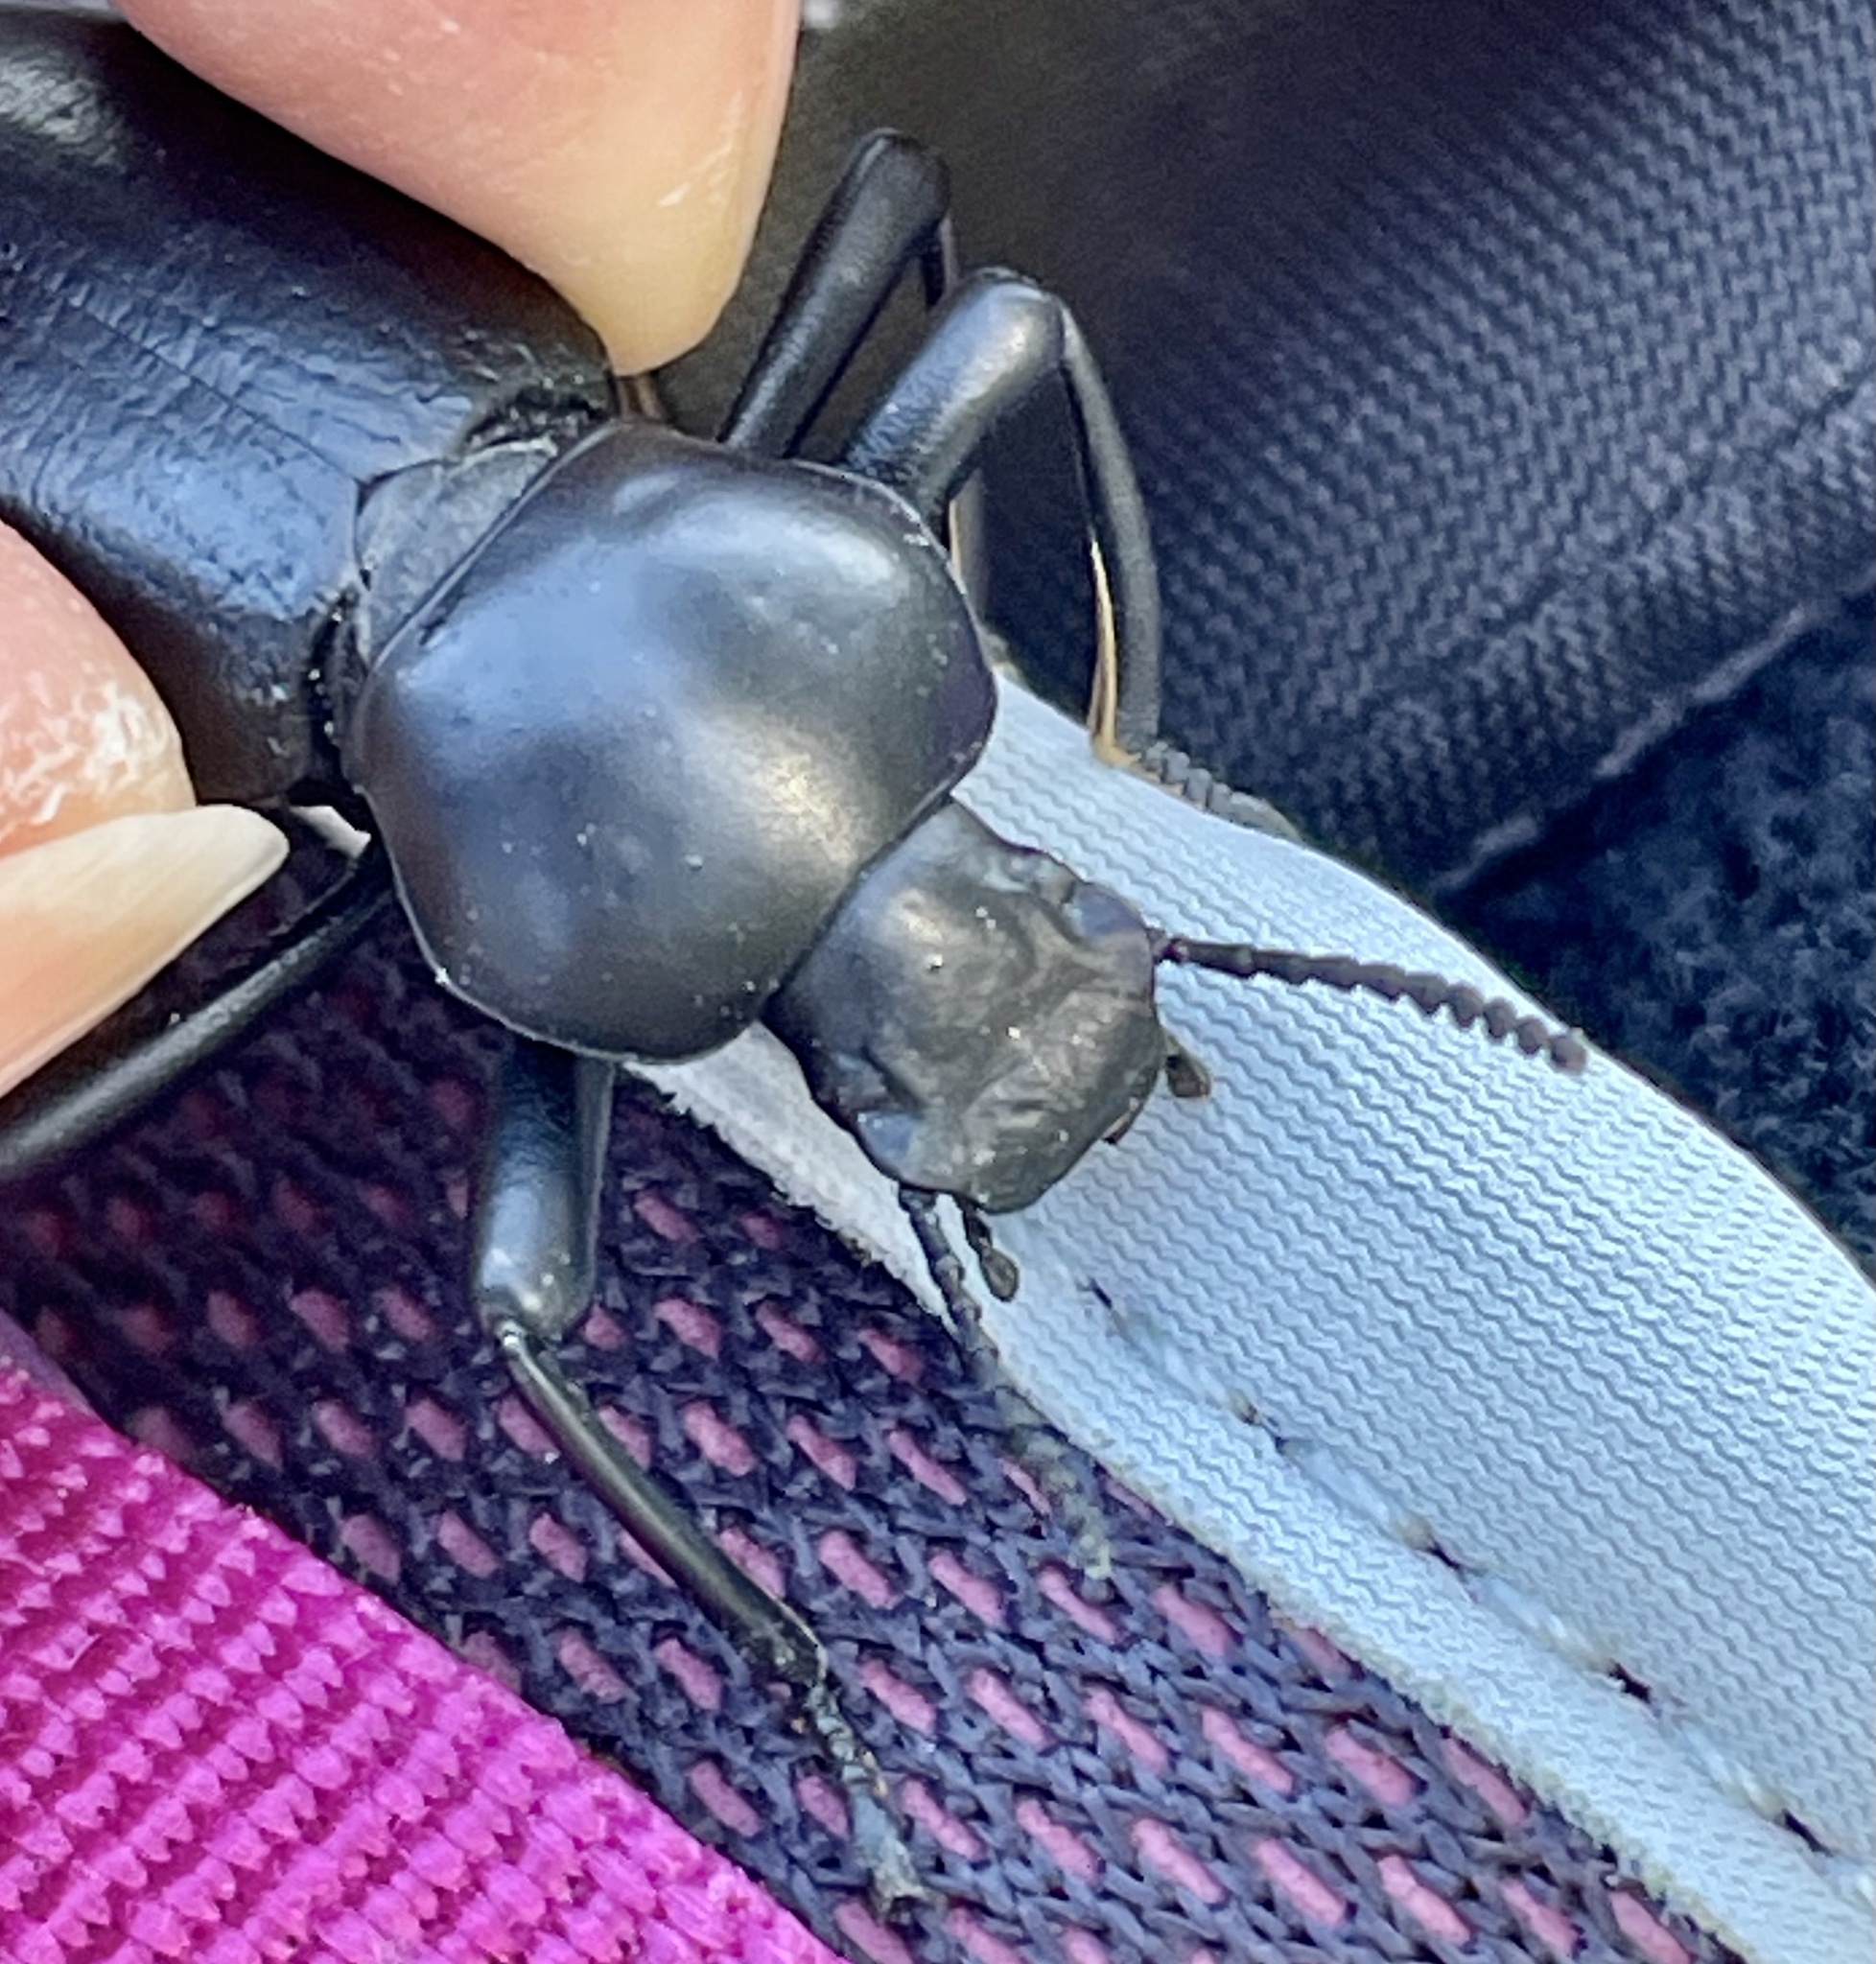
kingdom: Animalia
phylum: Arthropoda
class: Insecta
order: Coleoptera
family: Tenebrionidae
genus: Coelocnemis
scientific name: Coelocnemis magna
